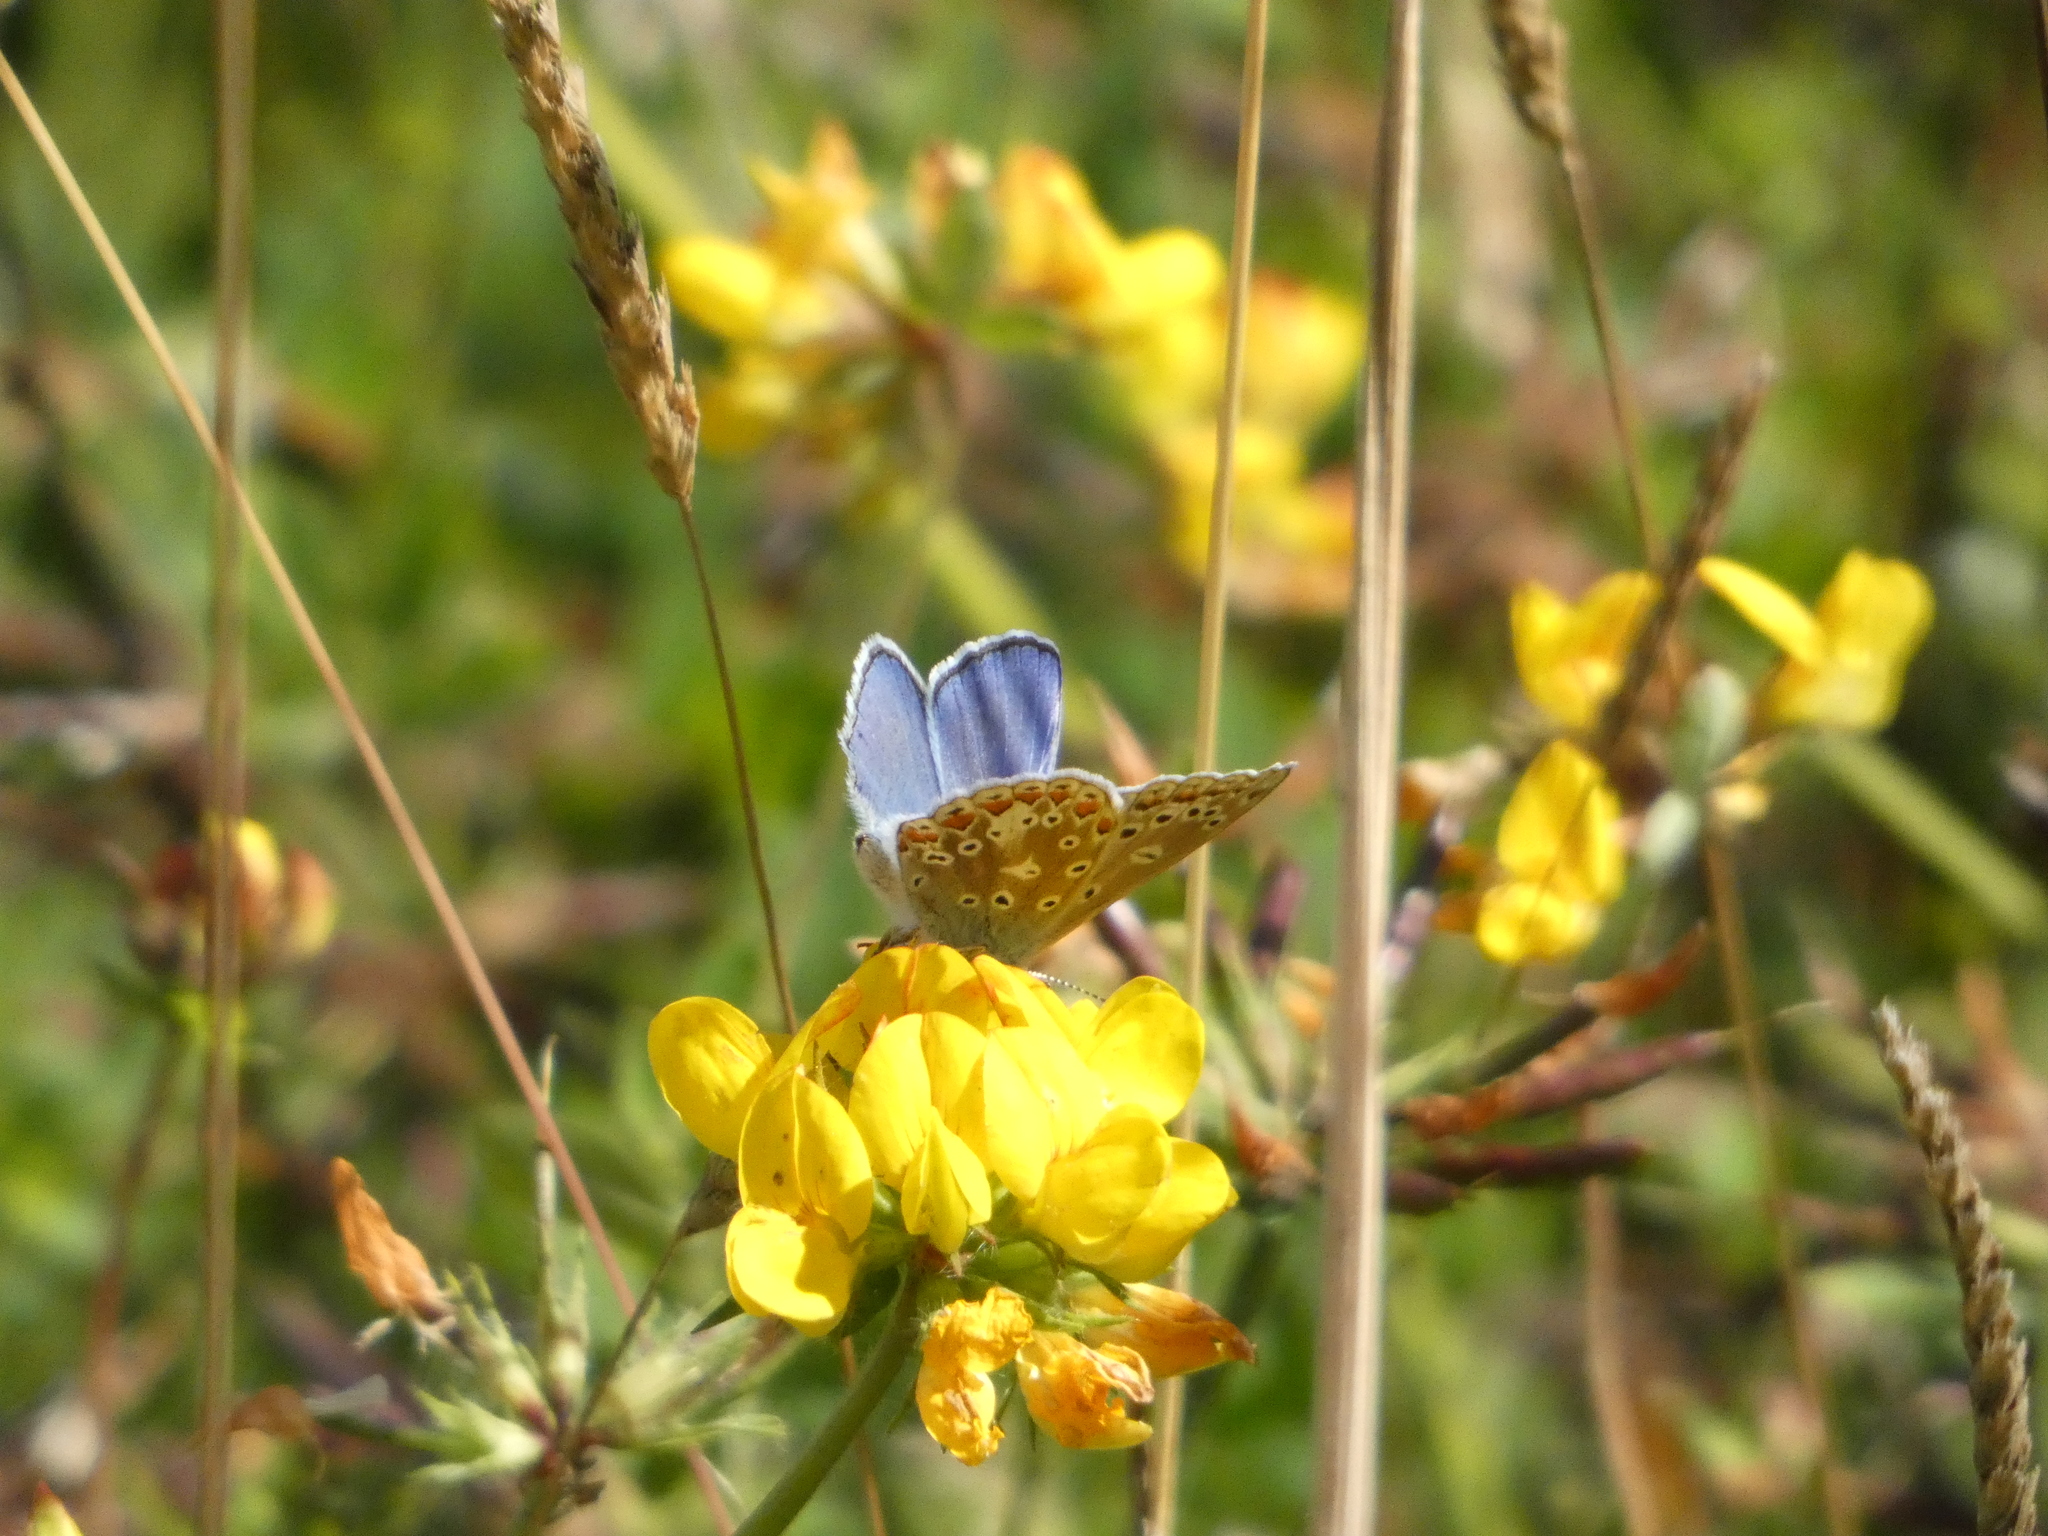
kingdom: Animalia
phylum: Arthropoda
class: Insecta
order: Lepidoptera
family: Lycaenidae
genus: Polyommatus
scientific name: Polyommatus icarus
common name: Common blue
